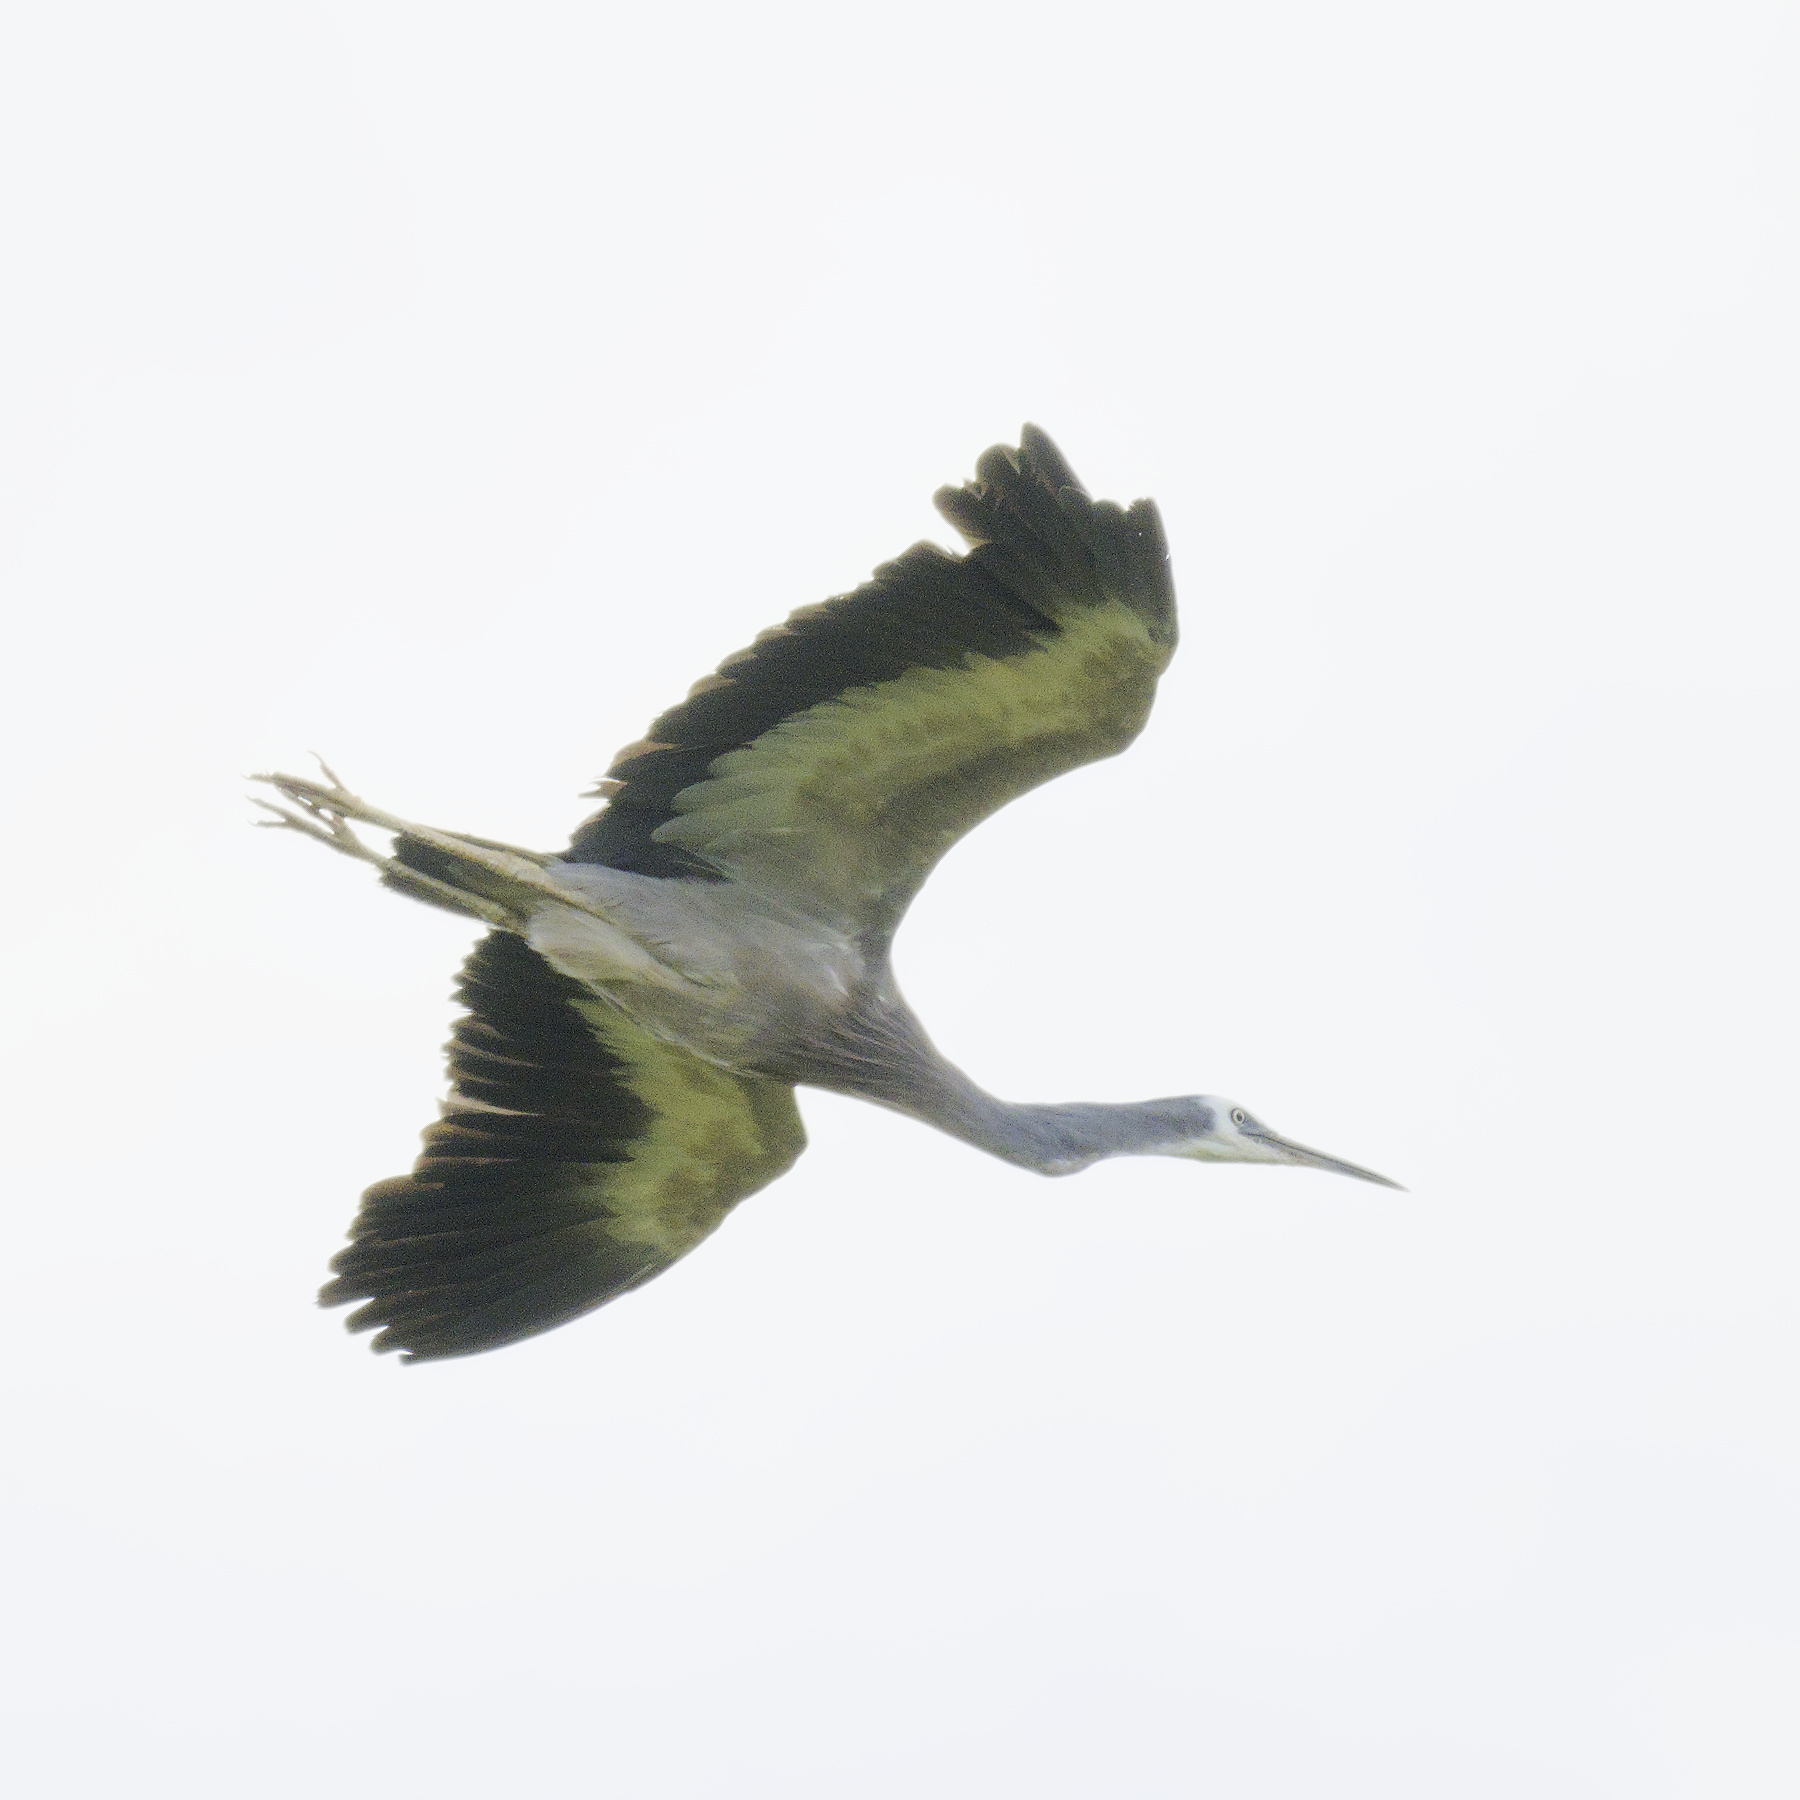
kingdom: Animalia
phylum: Chordata
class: Aves
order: Pelecaniformes
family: Ardeidae
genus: Egretta
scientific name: Egretta novaehollandiae
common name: White-faced heron
